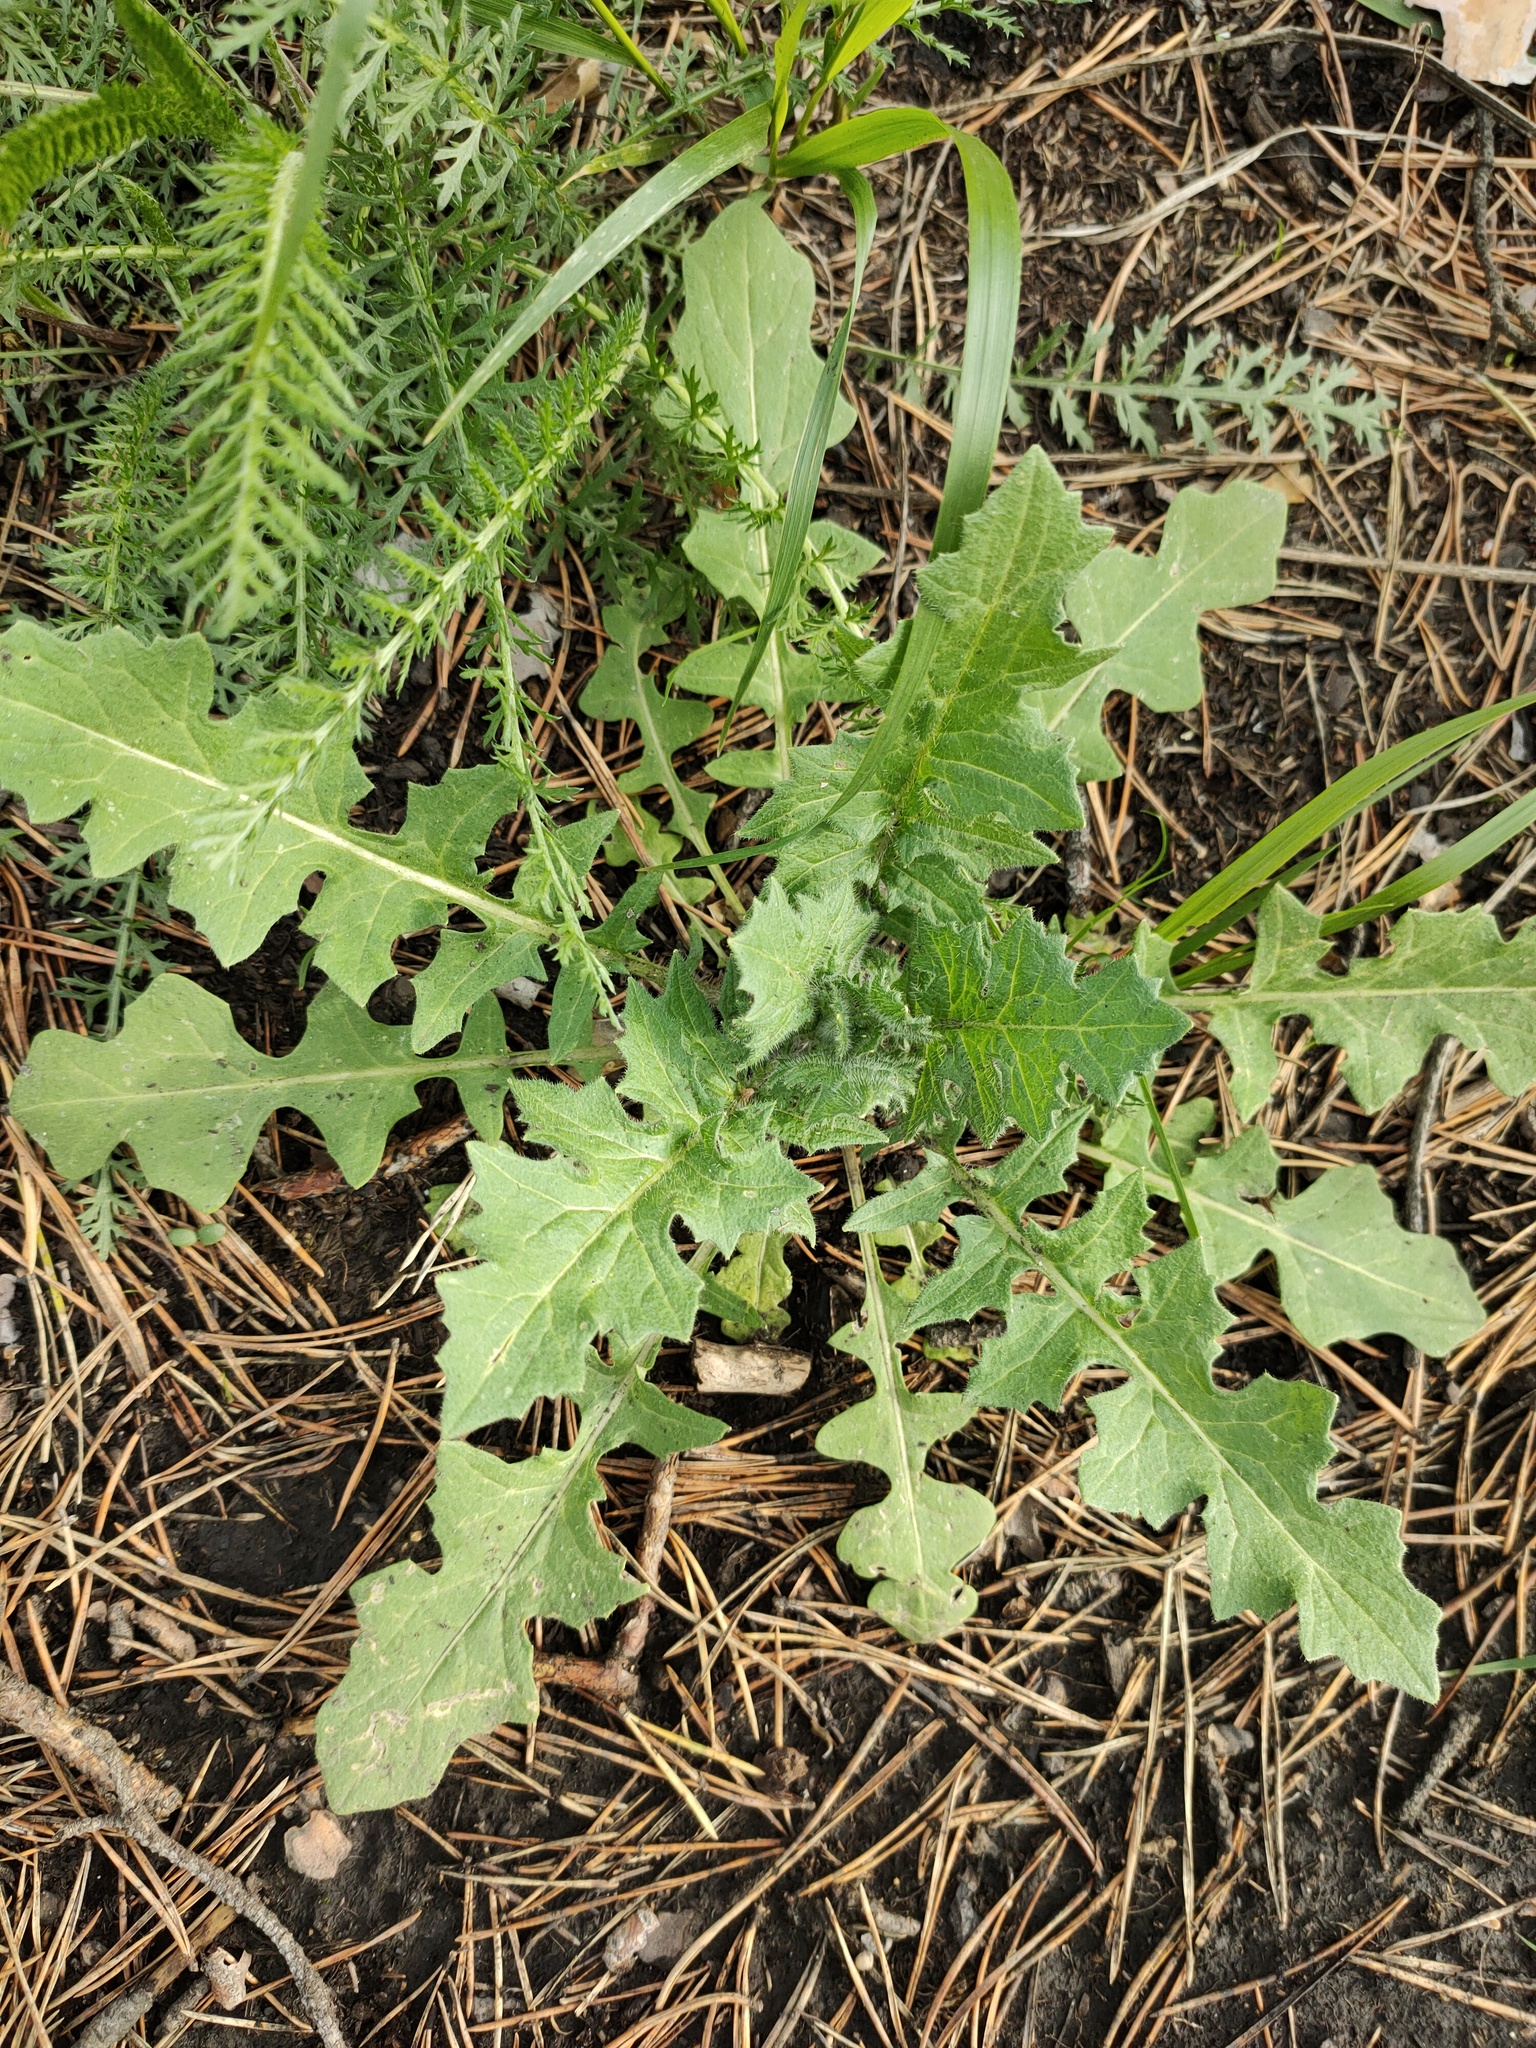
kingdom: Plantae
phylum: Tracheophyta
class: Magnoliopsida
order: Brassicales
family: Brassicaceae
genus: Sisymbrium
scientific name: Sisymbrium loeselii
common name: False london-rocket
